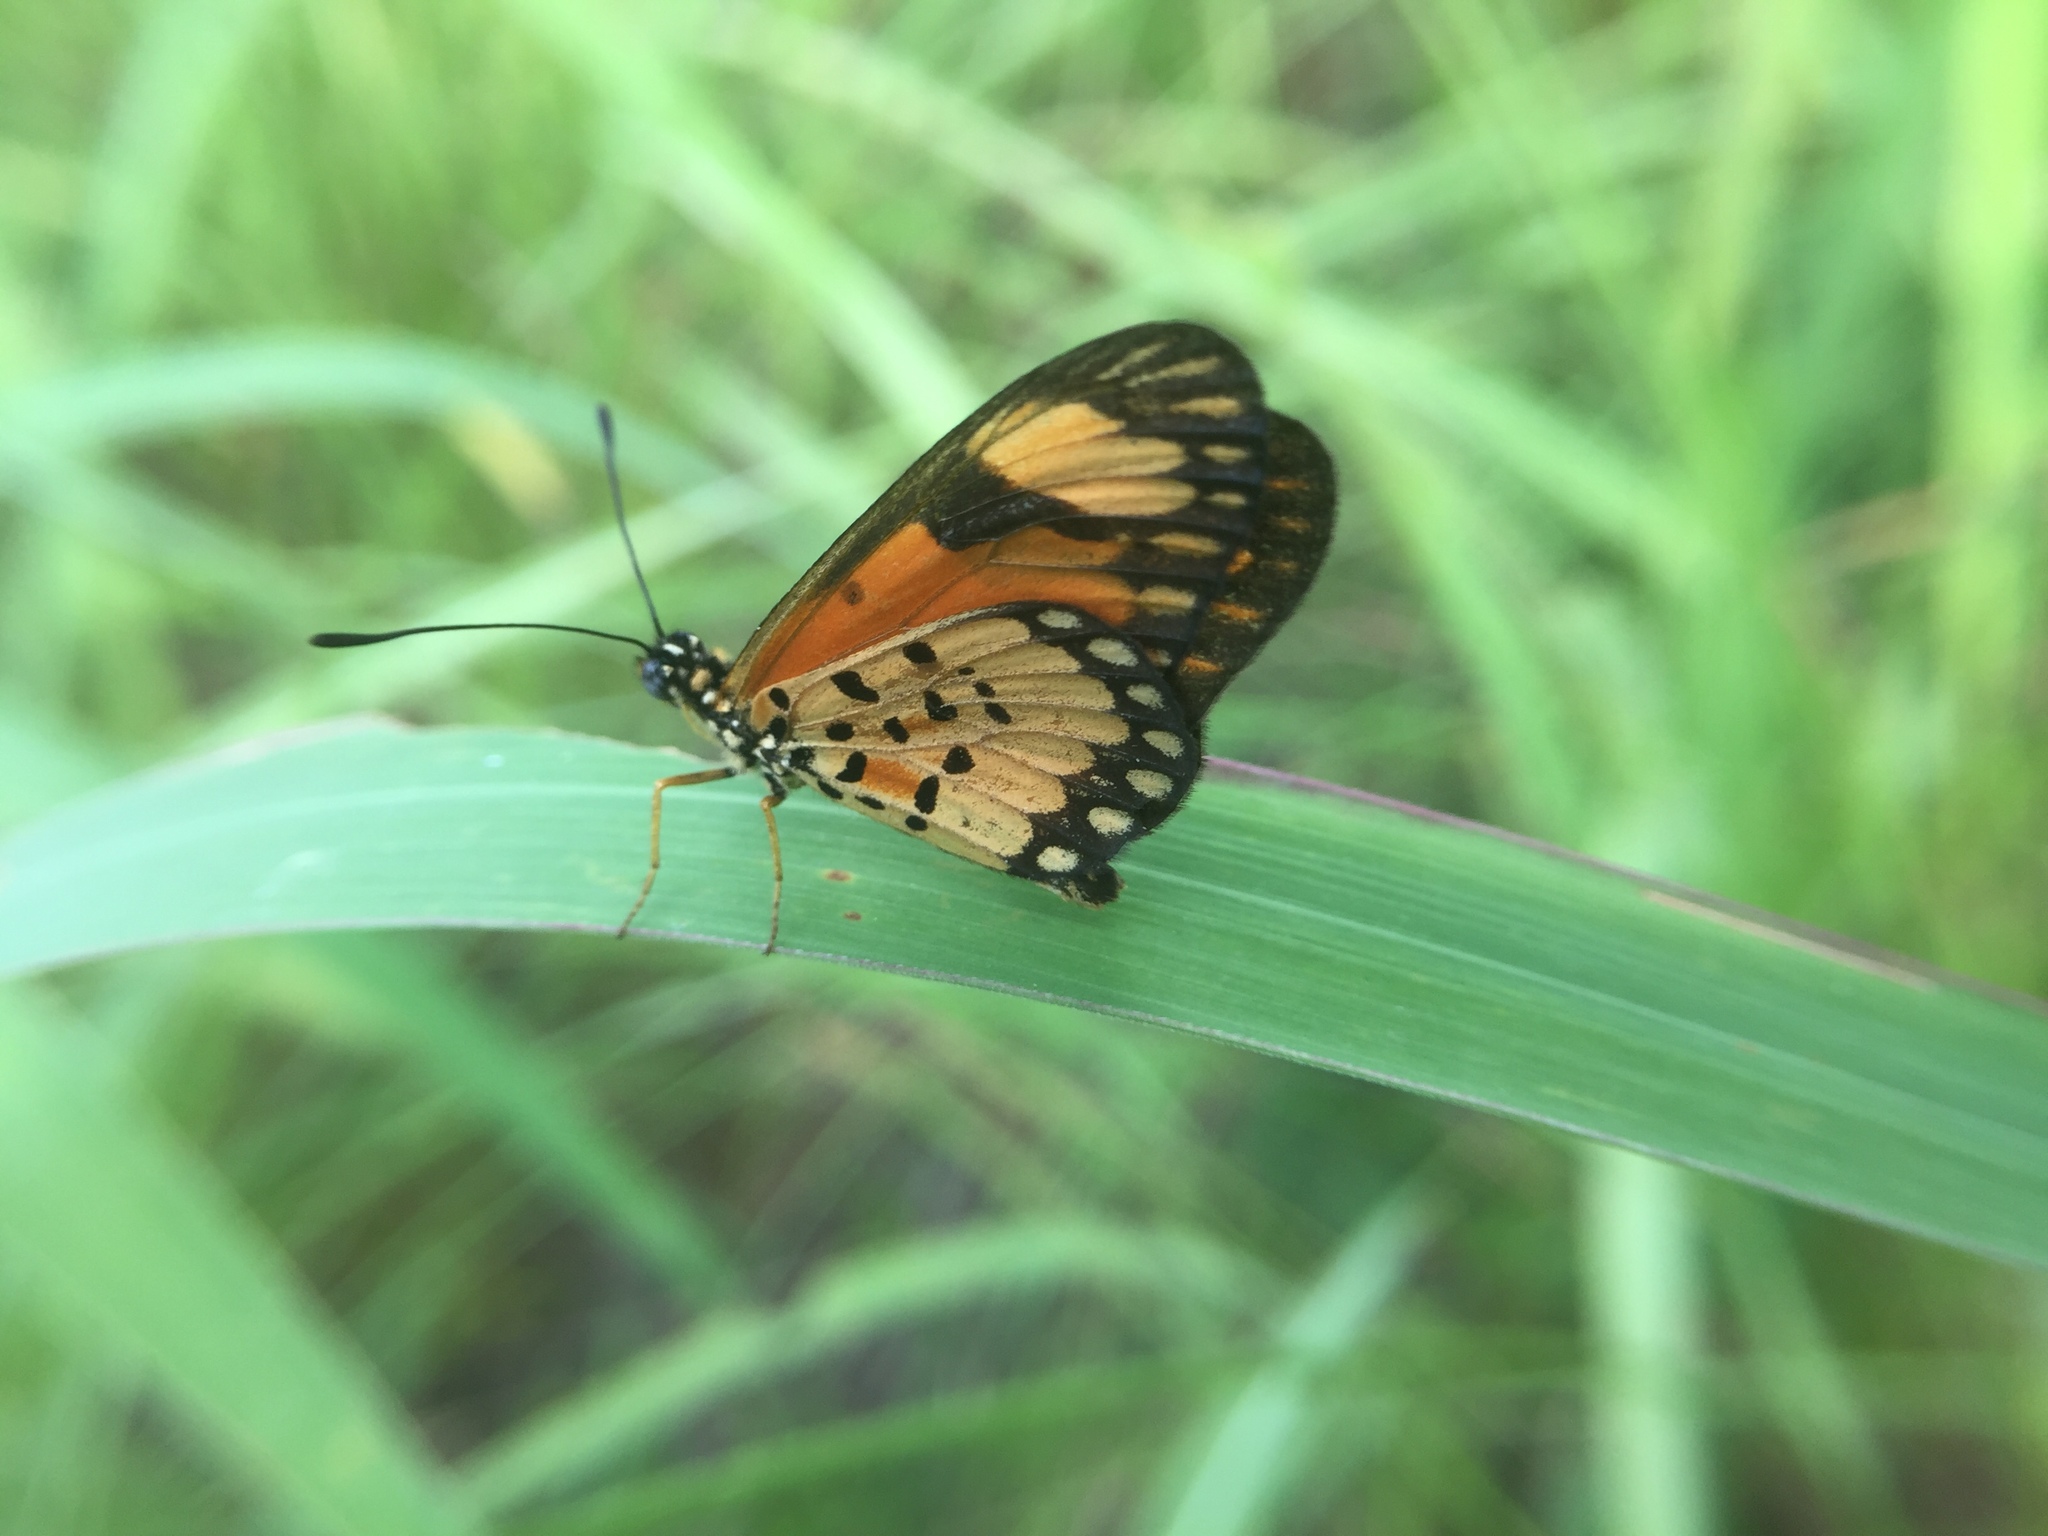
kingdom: Animalia
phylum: Arthropoda
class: Insecta
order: Lepidoptera
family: Nymphalidae
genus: Acraea
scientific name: Acraea Telchinia serena
